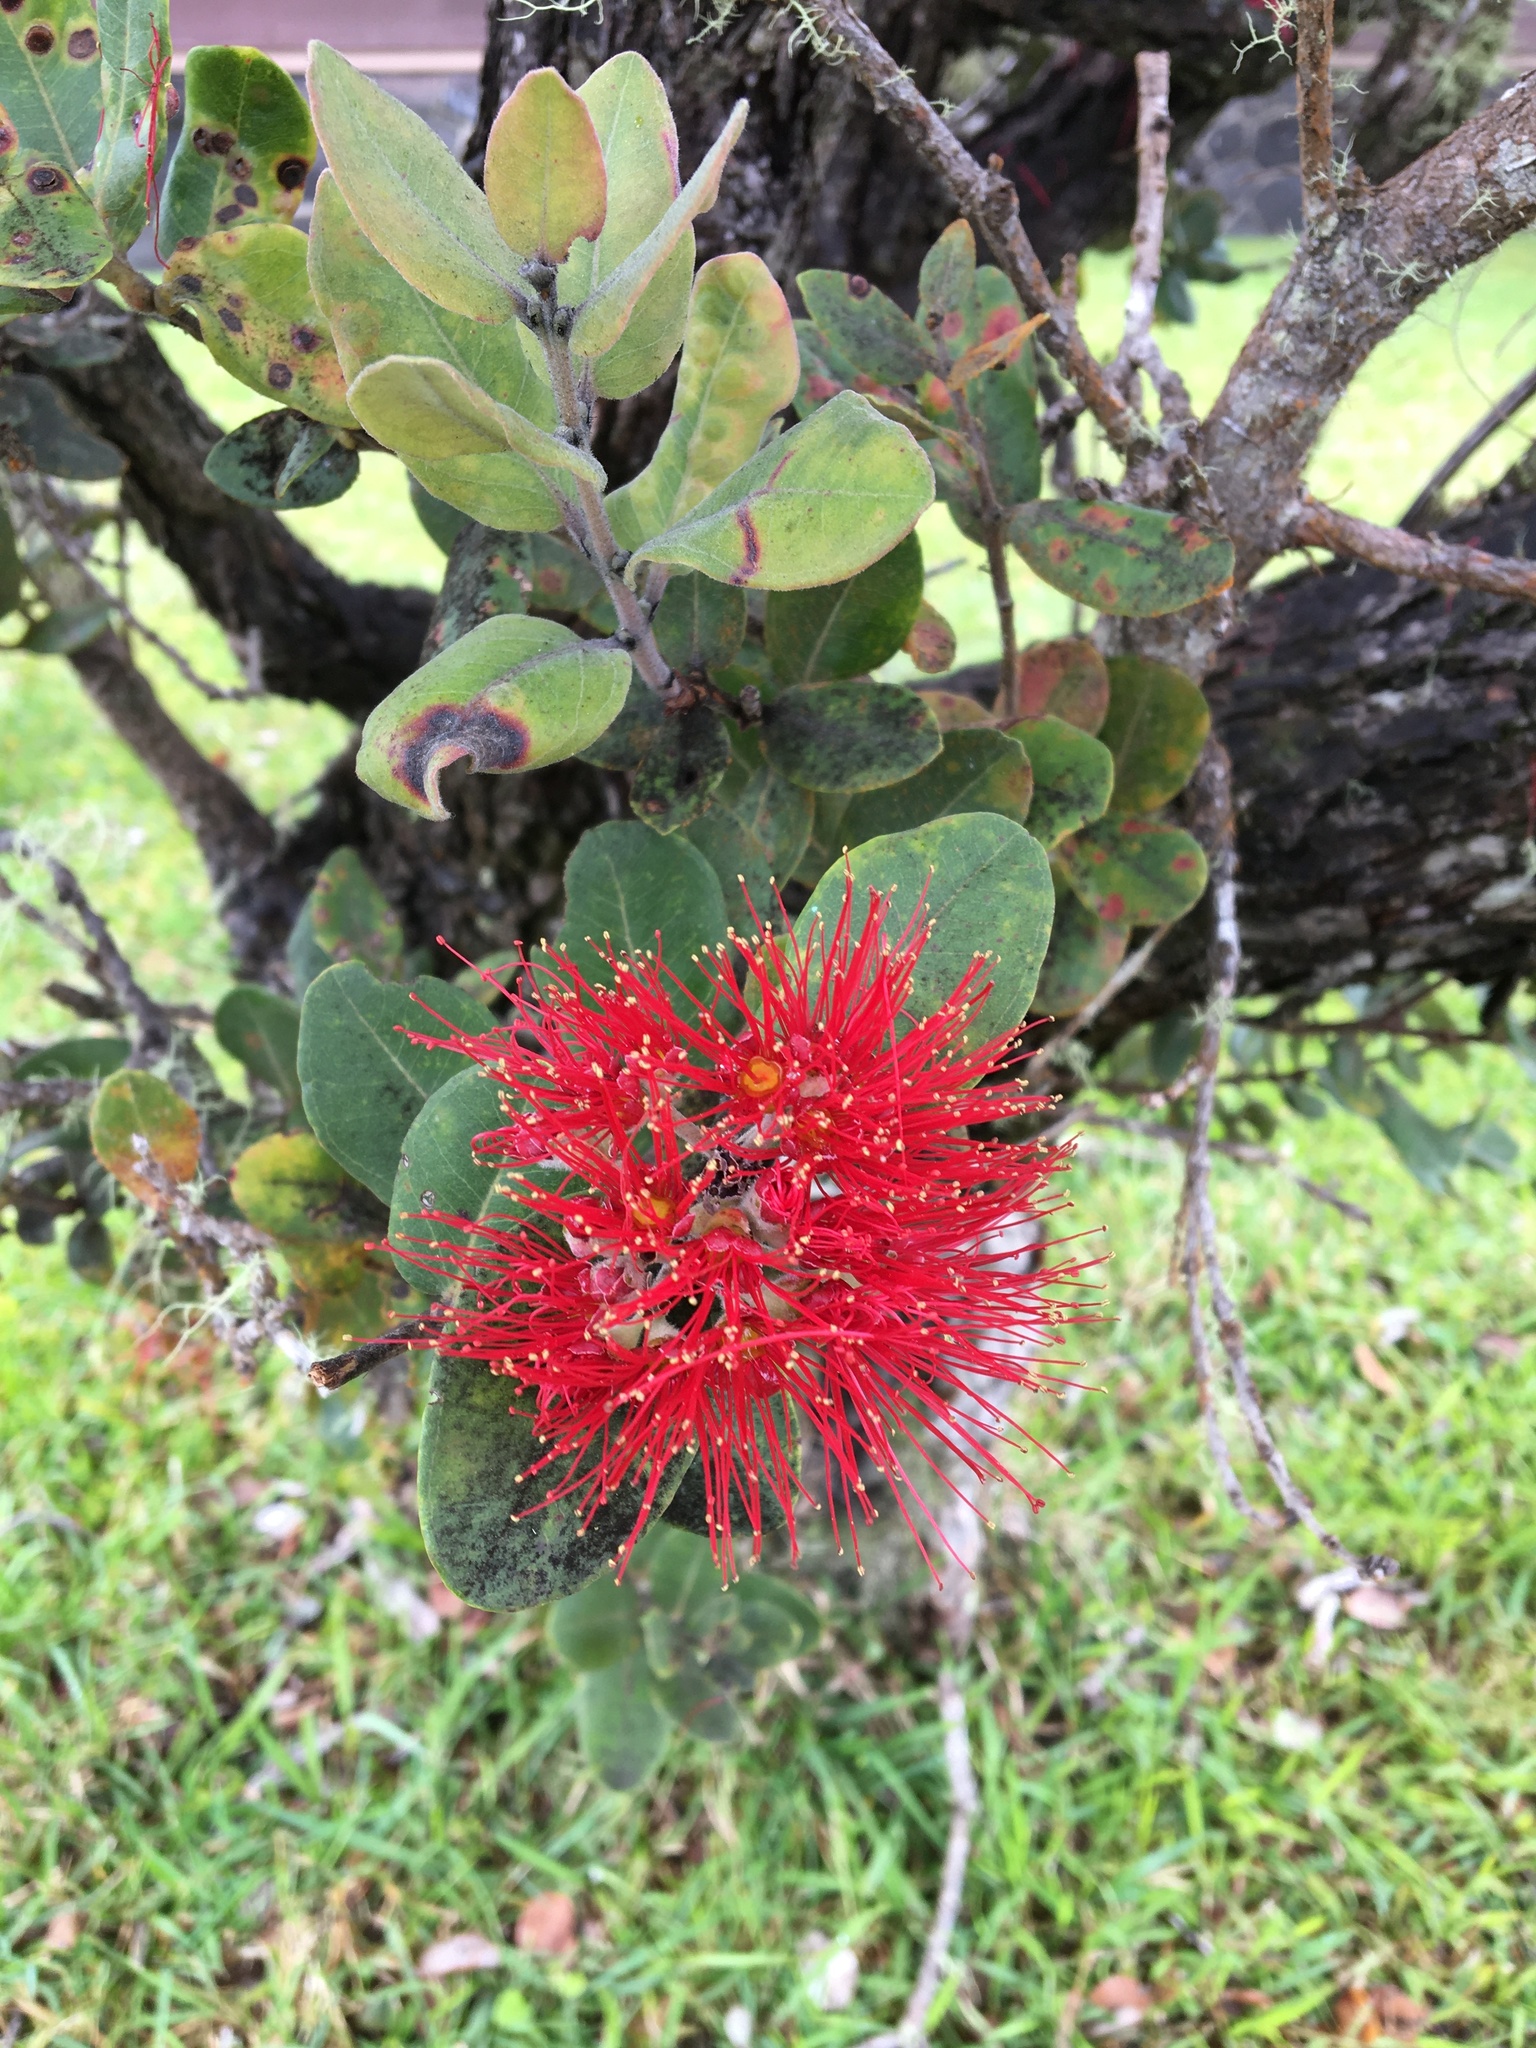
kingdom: Plantae
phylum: Tracheophyta
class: Magnoliopsida
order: Myrtales
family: Myrtaceae
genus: Metrosideros
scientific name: Metrosideros polymorpha
